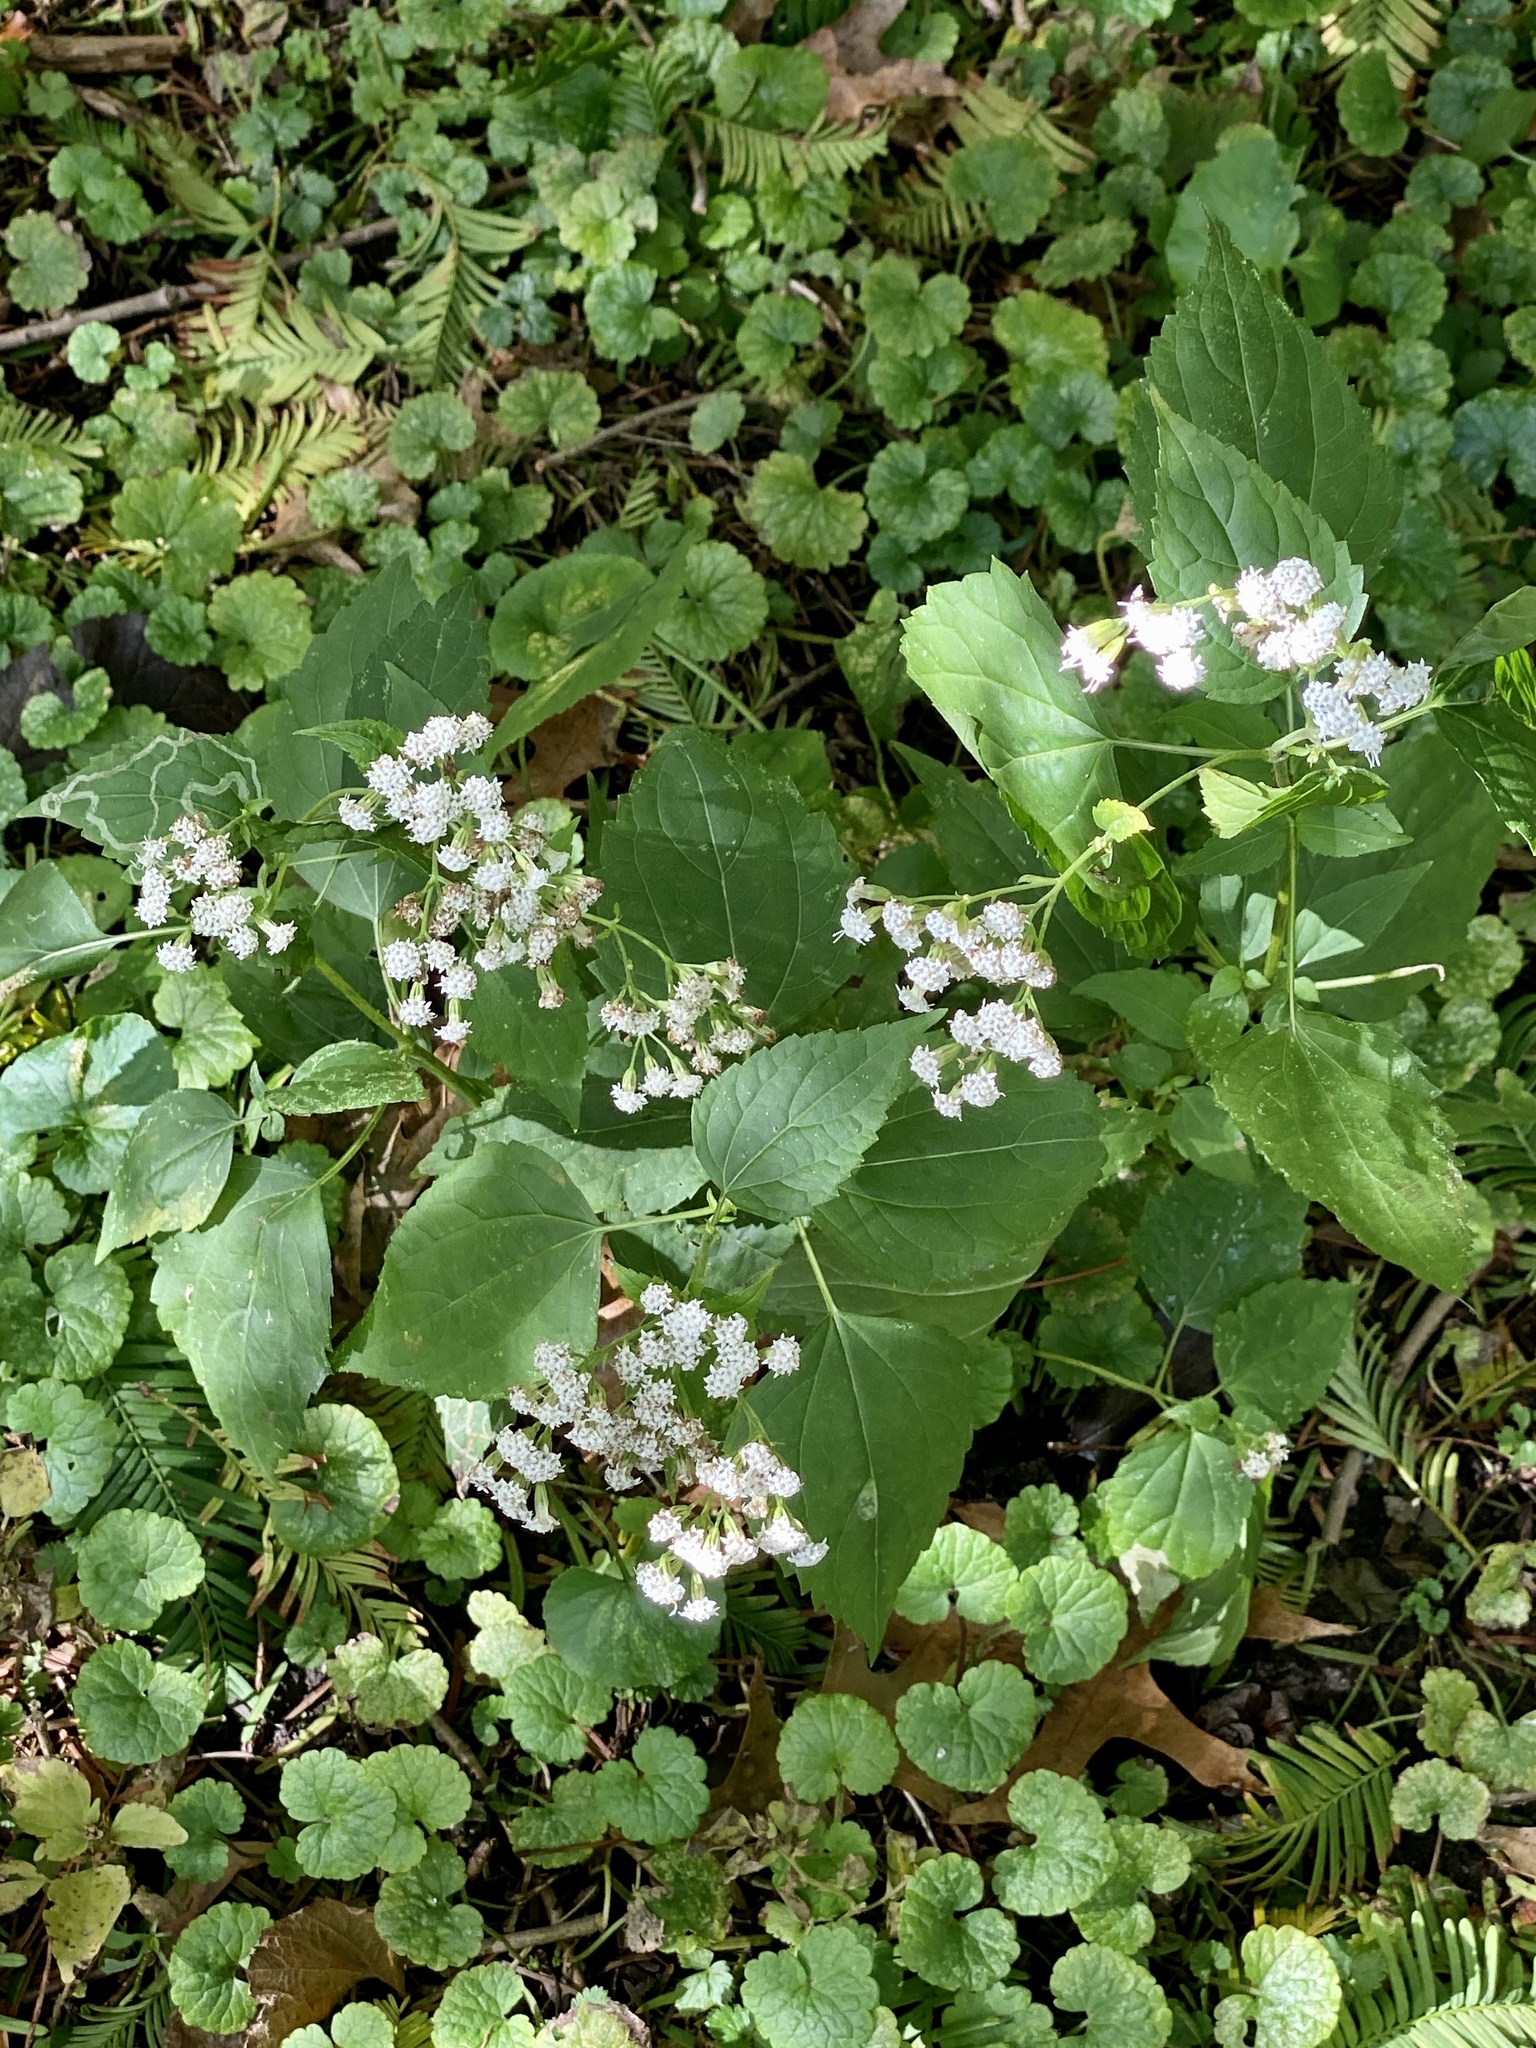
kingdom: Plantae
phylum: Tracheophyta
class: Magnoliopsida
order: Asterales
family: Asteraceae
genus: Ageratina
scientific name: Ageratina altissima
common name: White snakeroot
